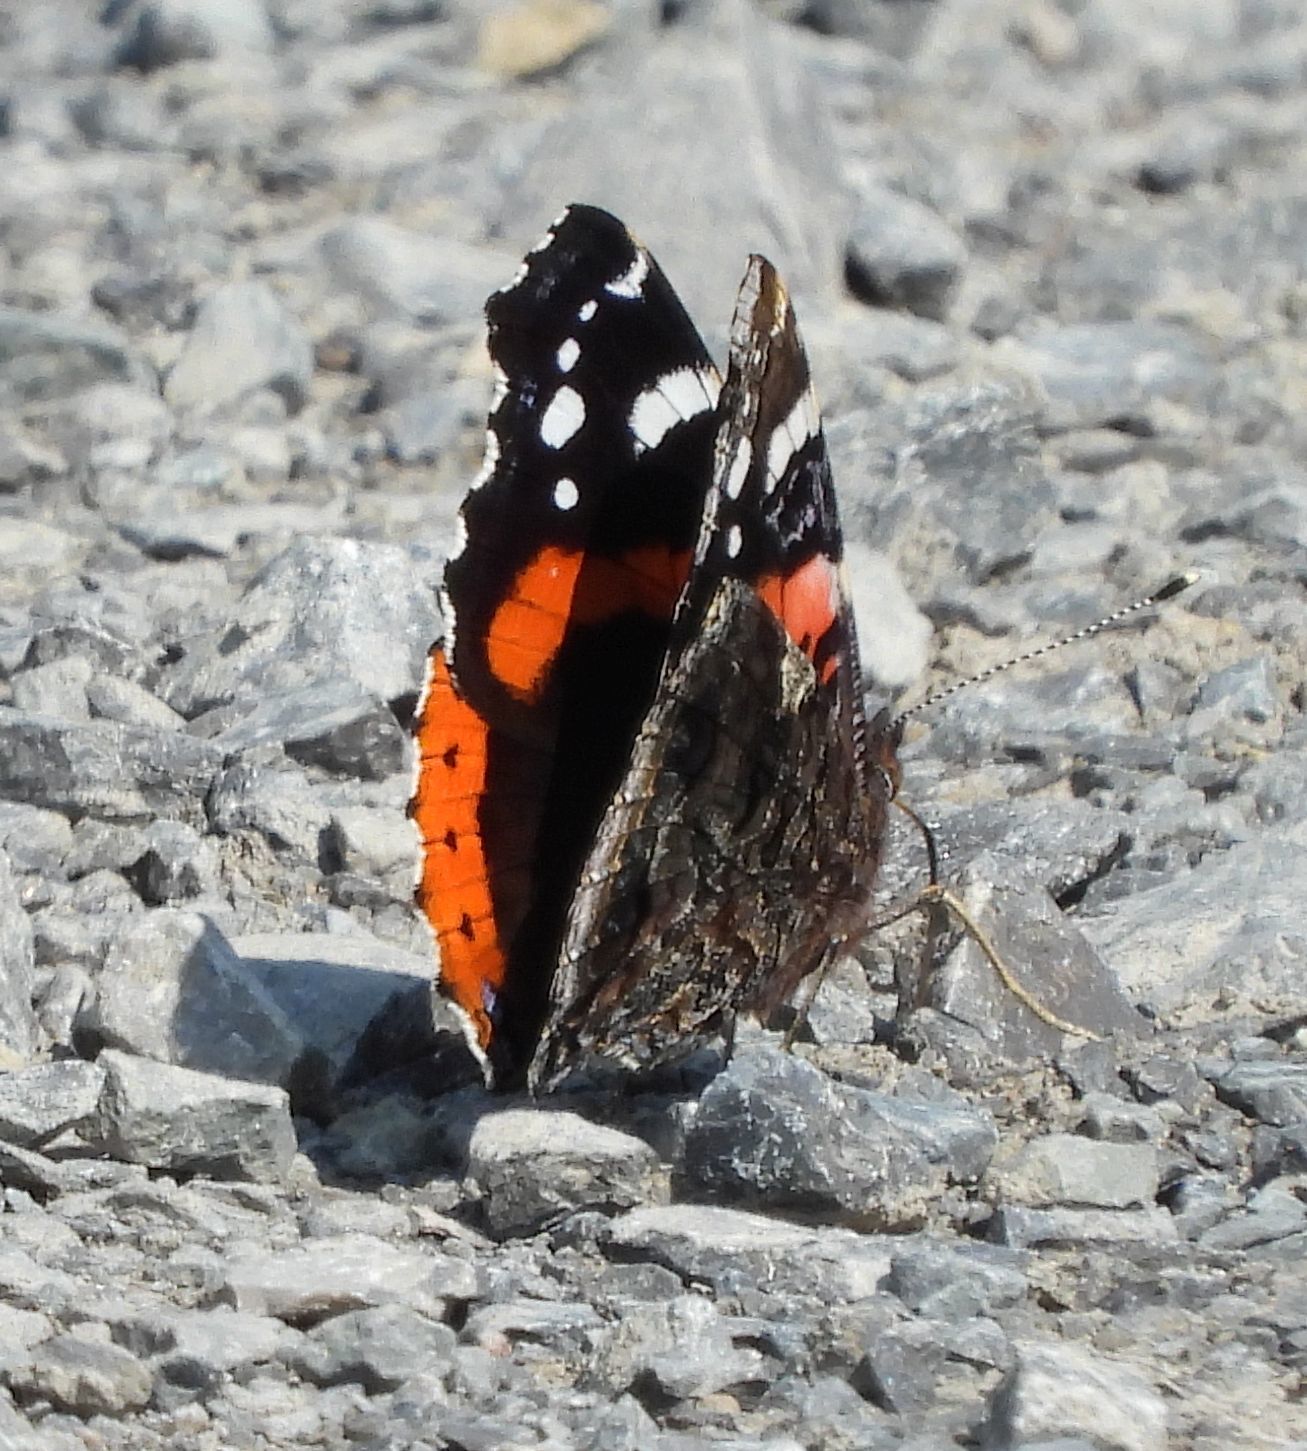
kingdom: Animalia
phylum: Arthropoda
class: Insecta
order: Lepidoptera
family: Nymphalidae
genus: Vanessa
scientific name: Vanessa atalanta
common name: Red admiral
